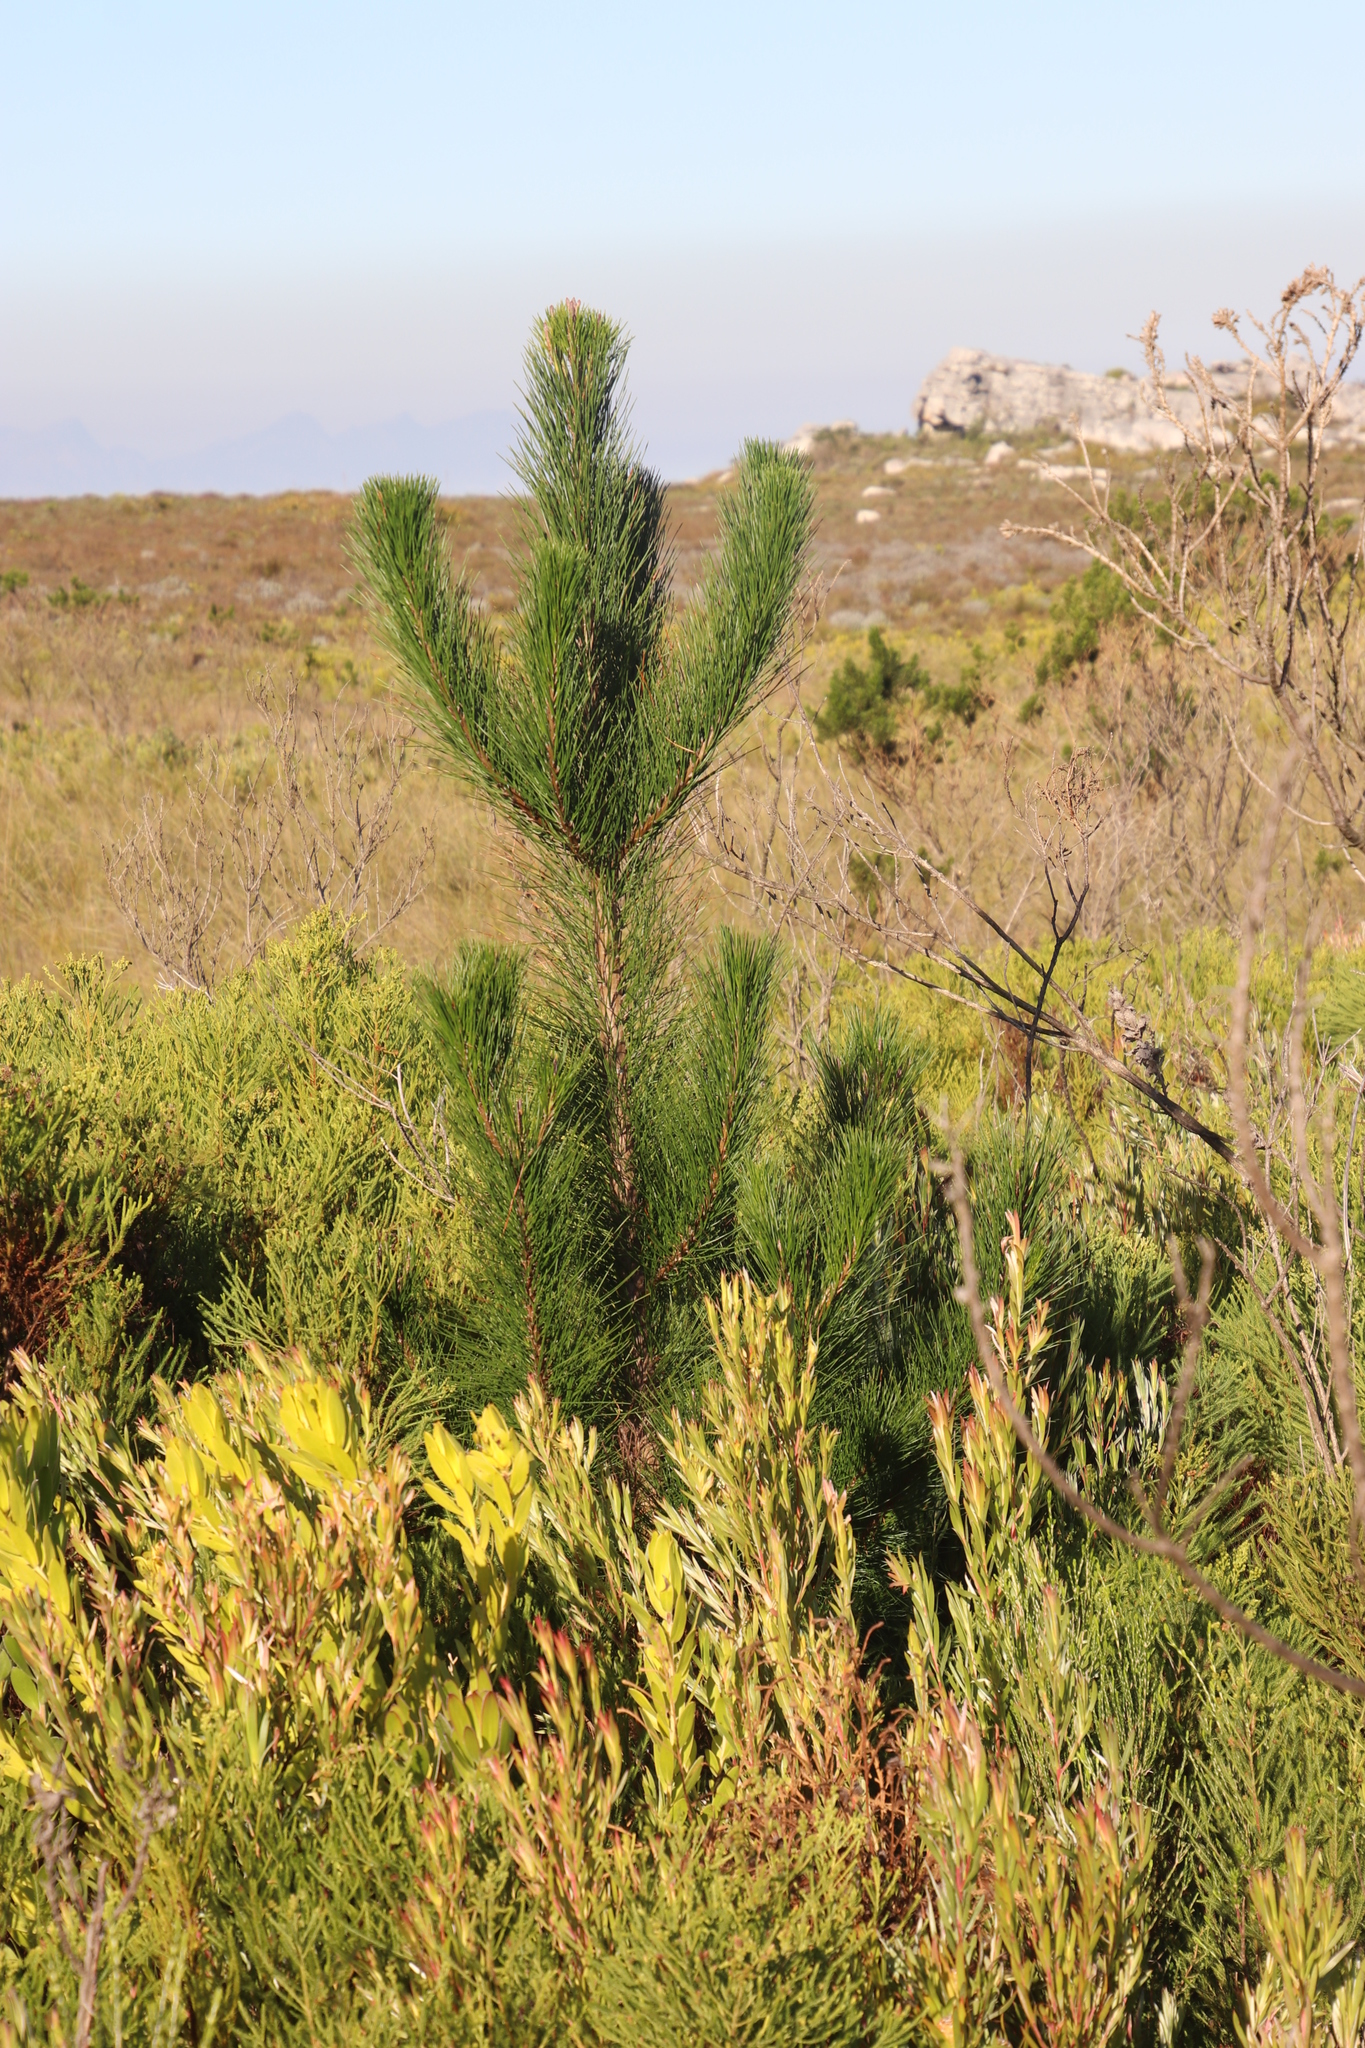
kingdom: Plantae
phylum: Tracheophyta
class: Pinopsida
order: Pinales
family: Pinaceae
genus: Pinus
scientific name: Pinus pinaster
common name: Maritime pine
